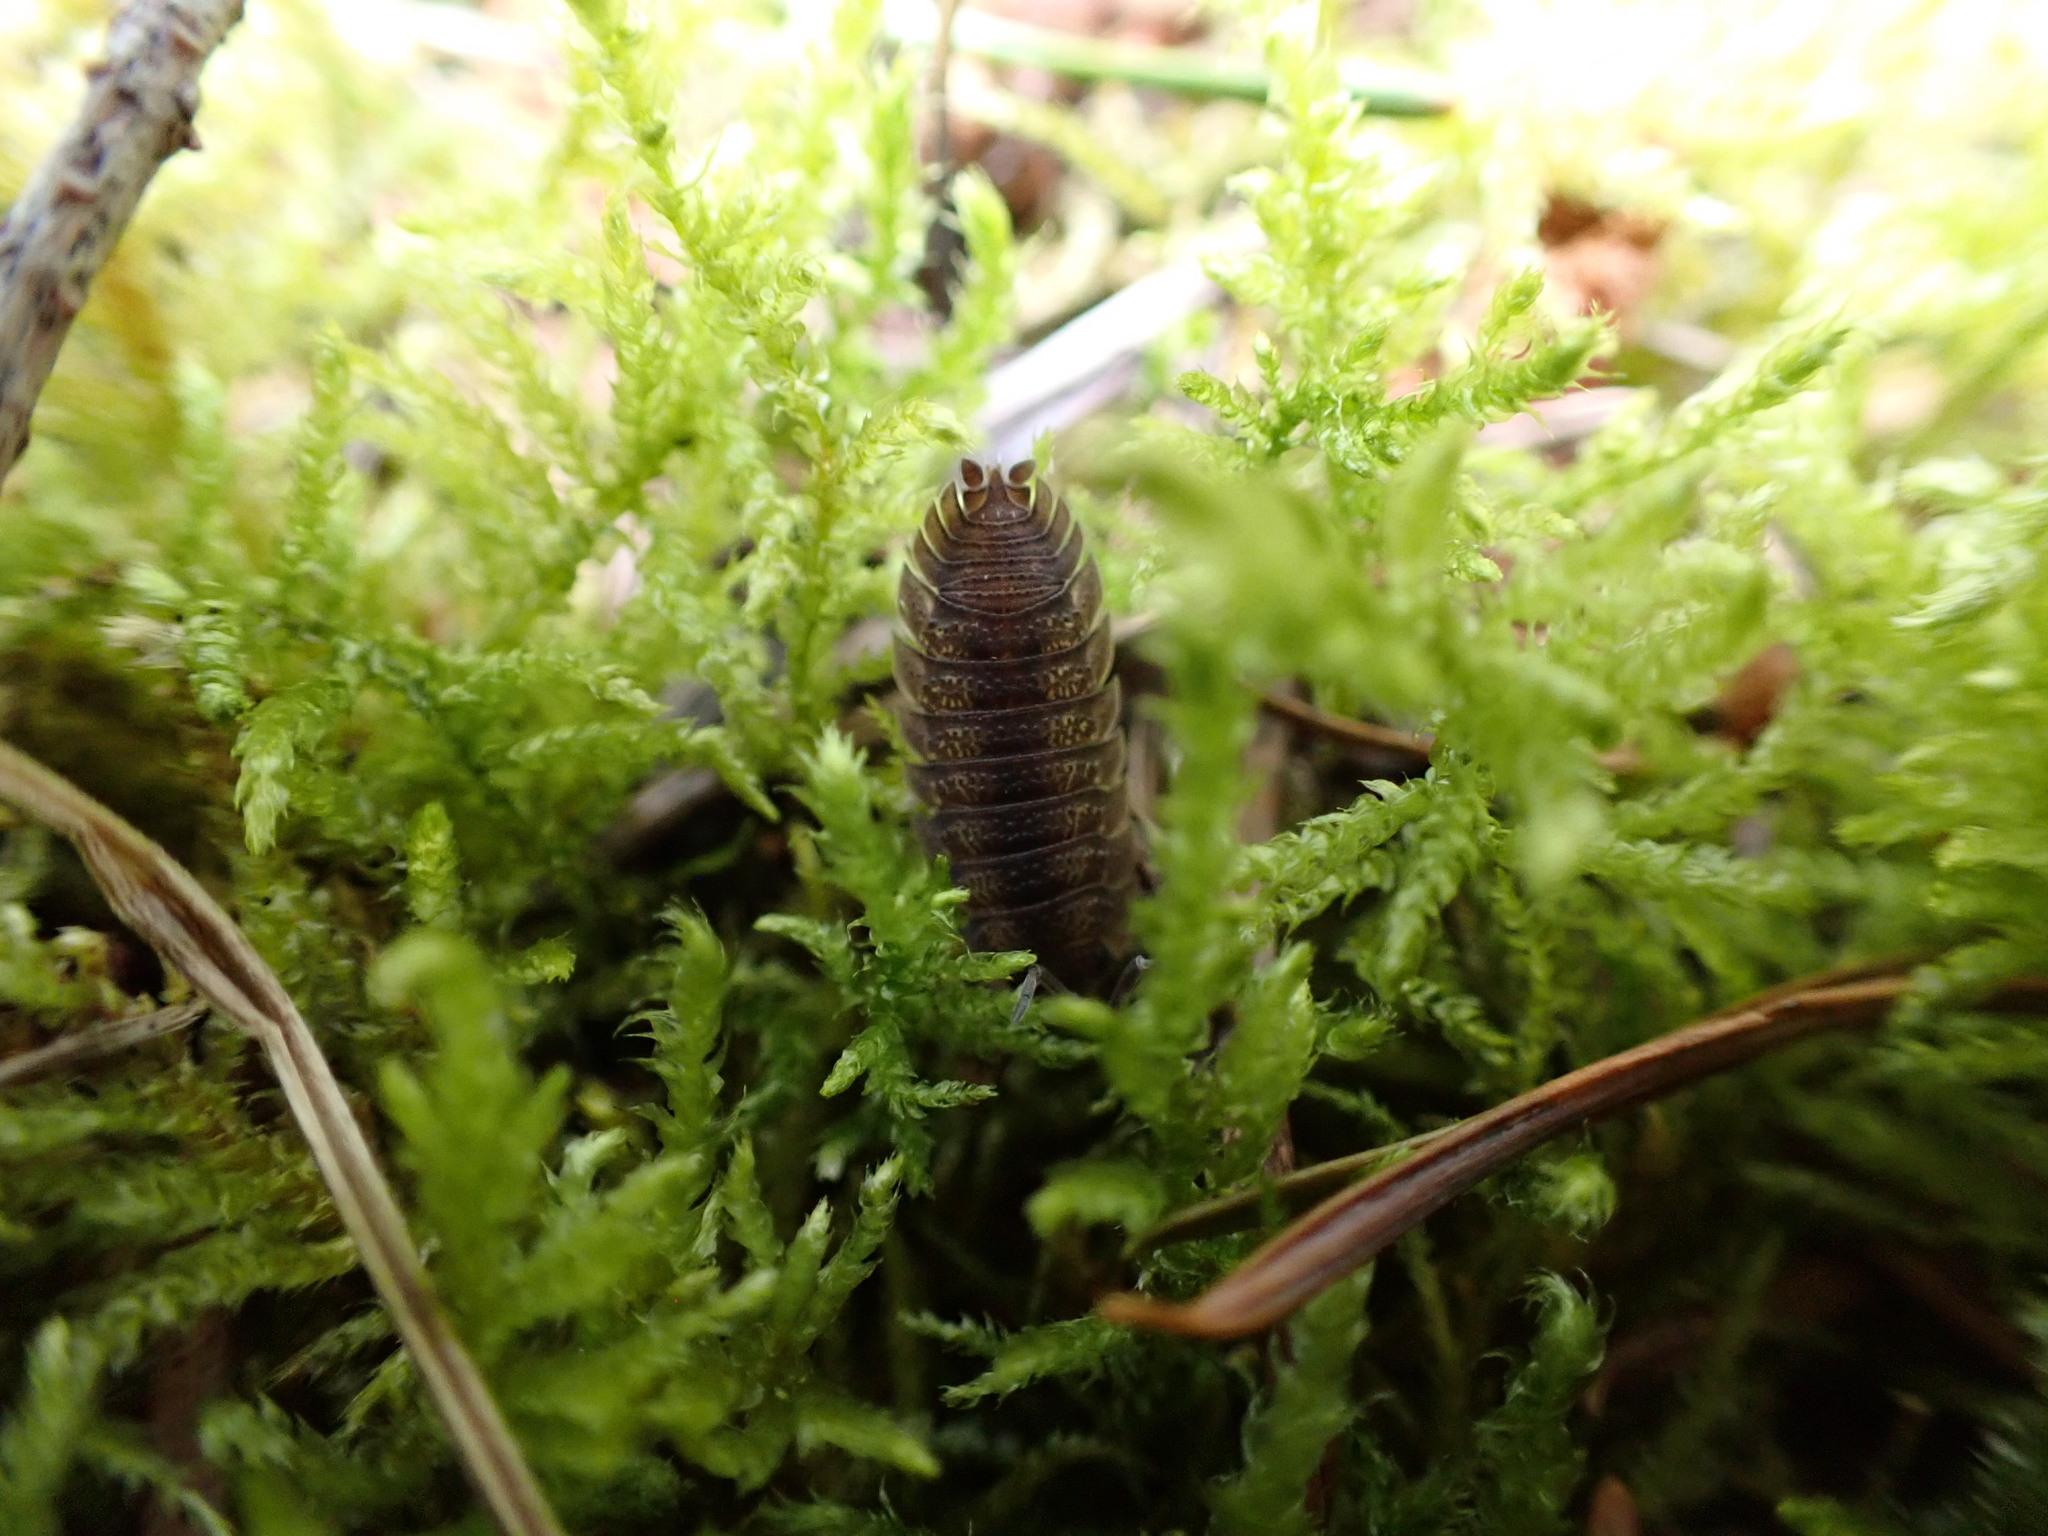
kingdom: Animalia
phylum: Arthropoda
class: Malacostraca
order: Isopoda
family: Porcellionidae
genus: Porcellio
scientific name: Porcellio scaber
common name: Common rough woodlouse
